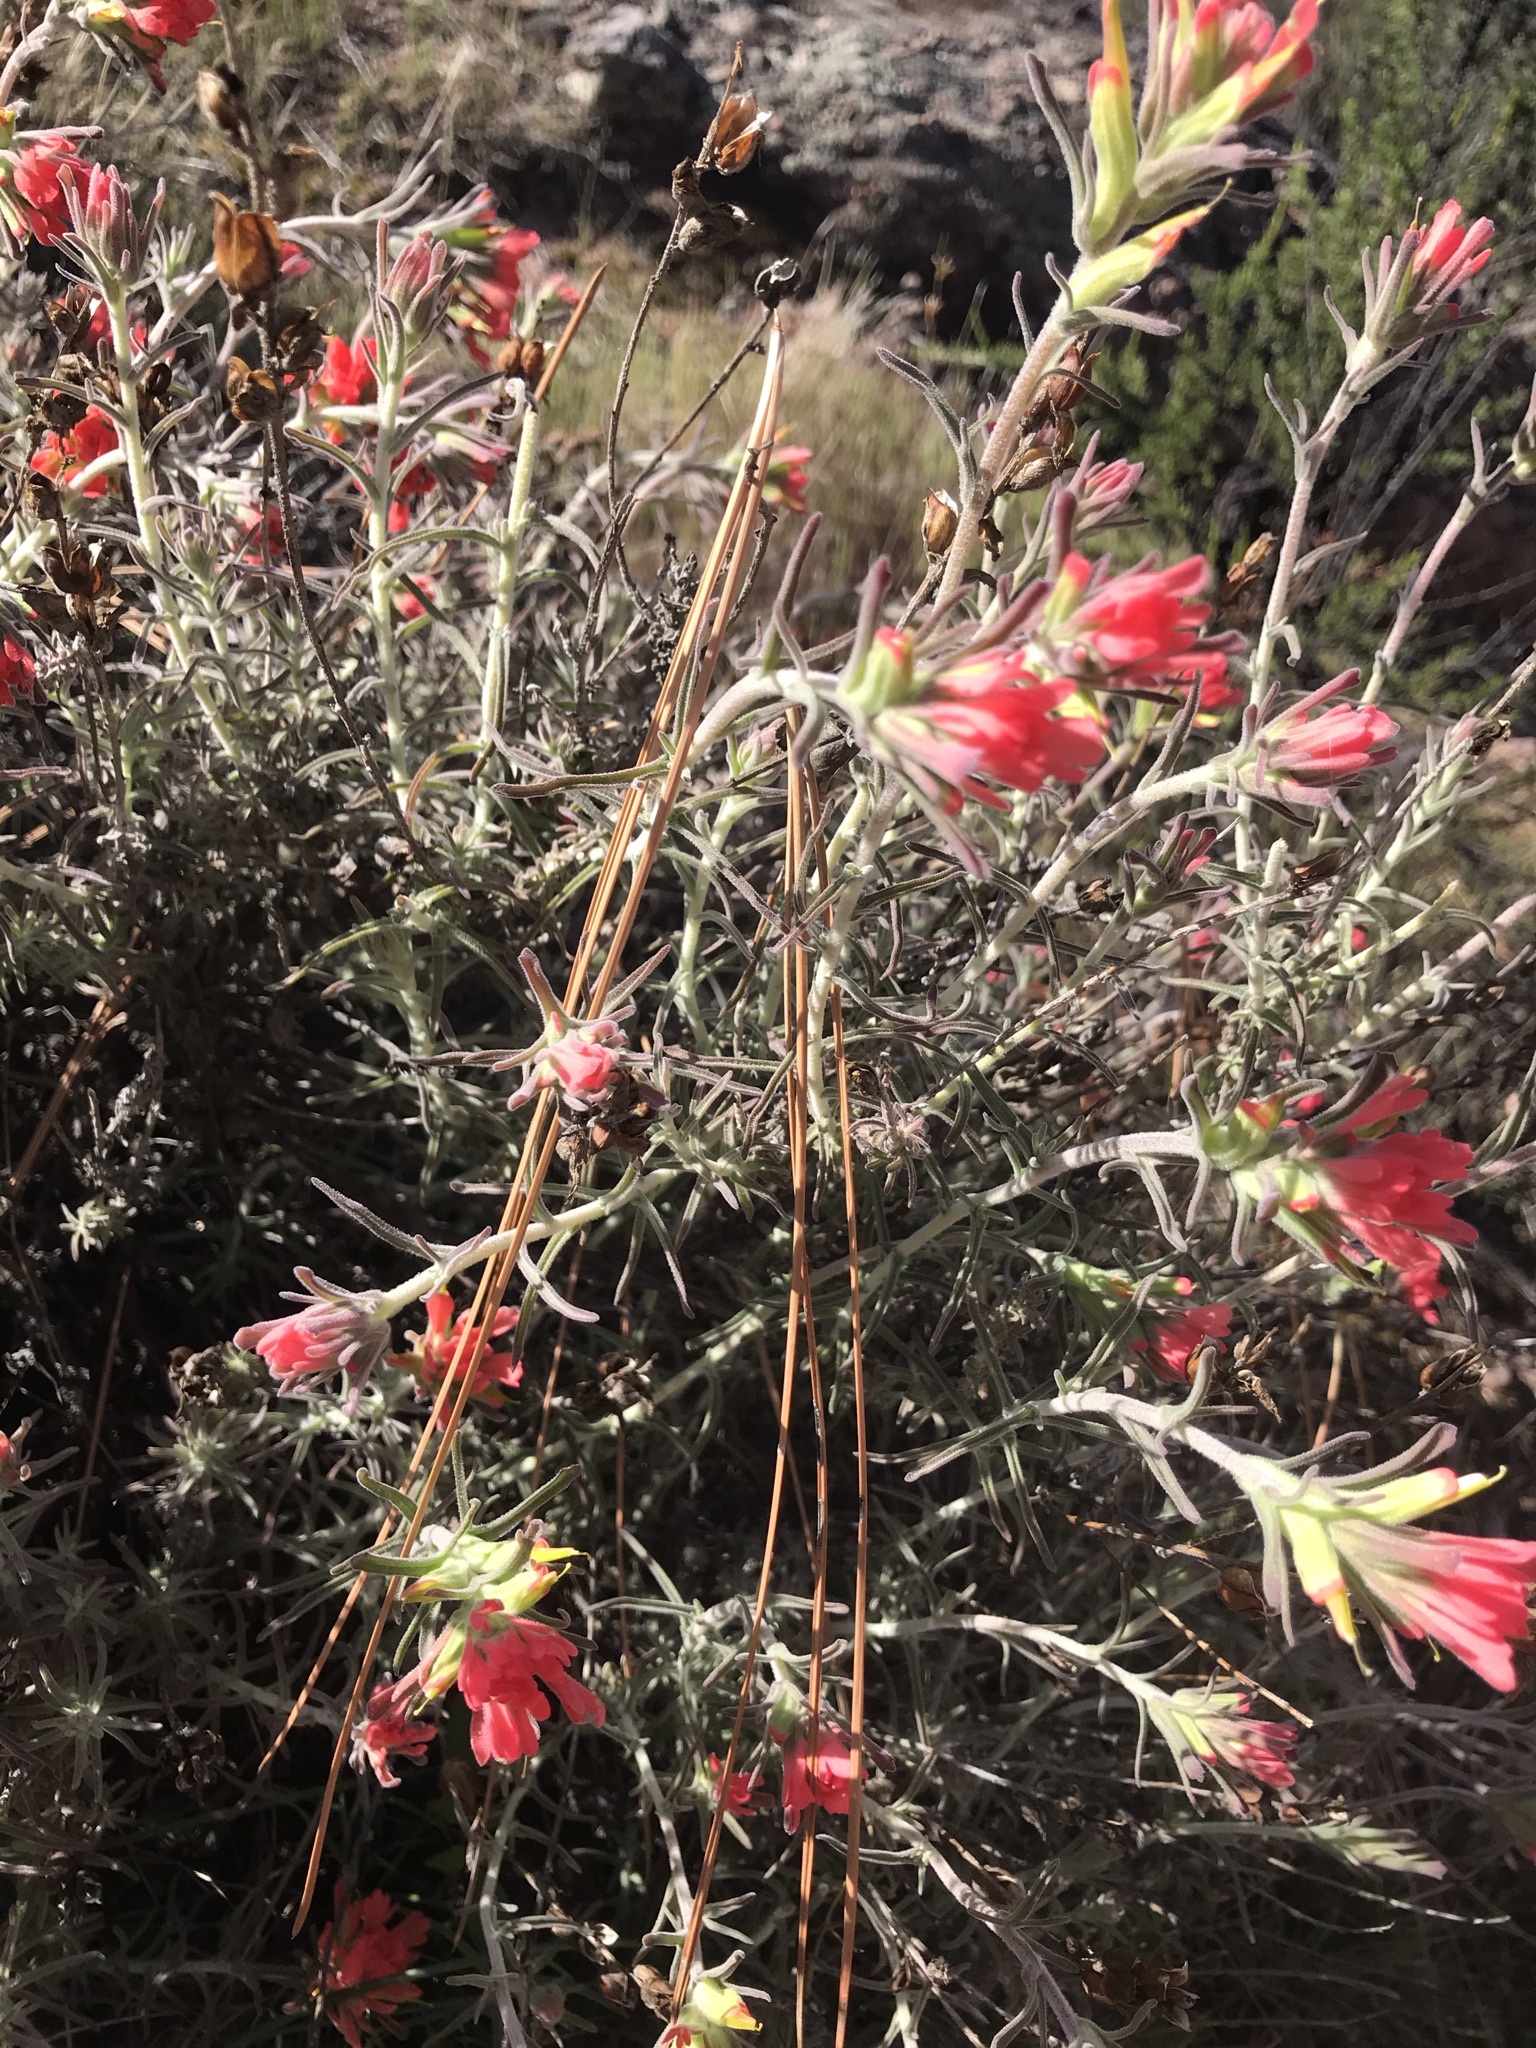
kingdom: Plantae
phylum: Tracheophyta
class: Magnoliopsida
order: Lamiales
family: Orobanchaceae
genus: Castilleja
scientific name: Castilleja foliolosa
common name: Woolly indian paintbrush
